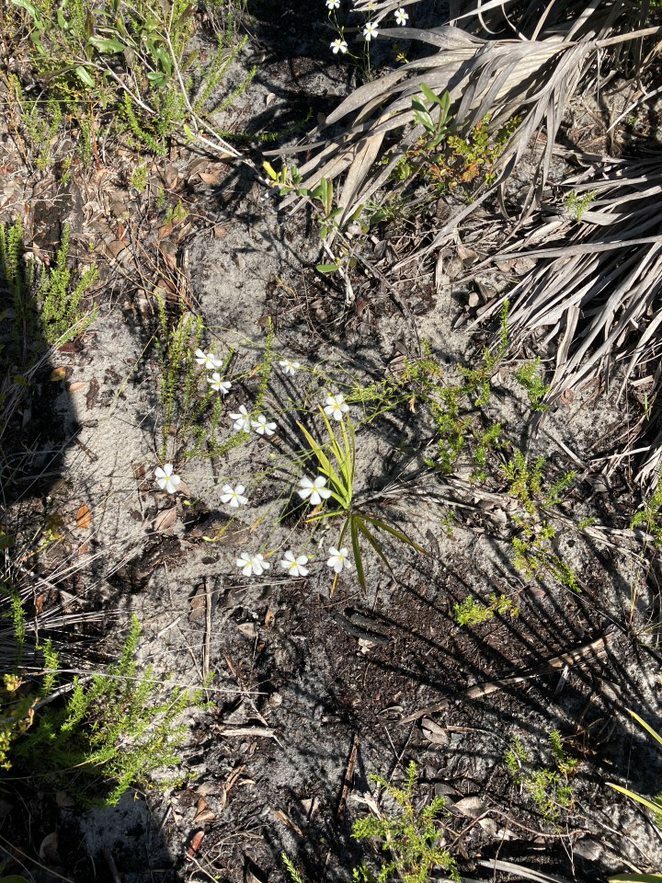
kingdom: Plantae
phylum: Tracheophyta
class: Magnoliopsida
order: Gentianales
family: Gentianaceae
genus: Sabatia
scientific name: Sabatia brevifolia
